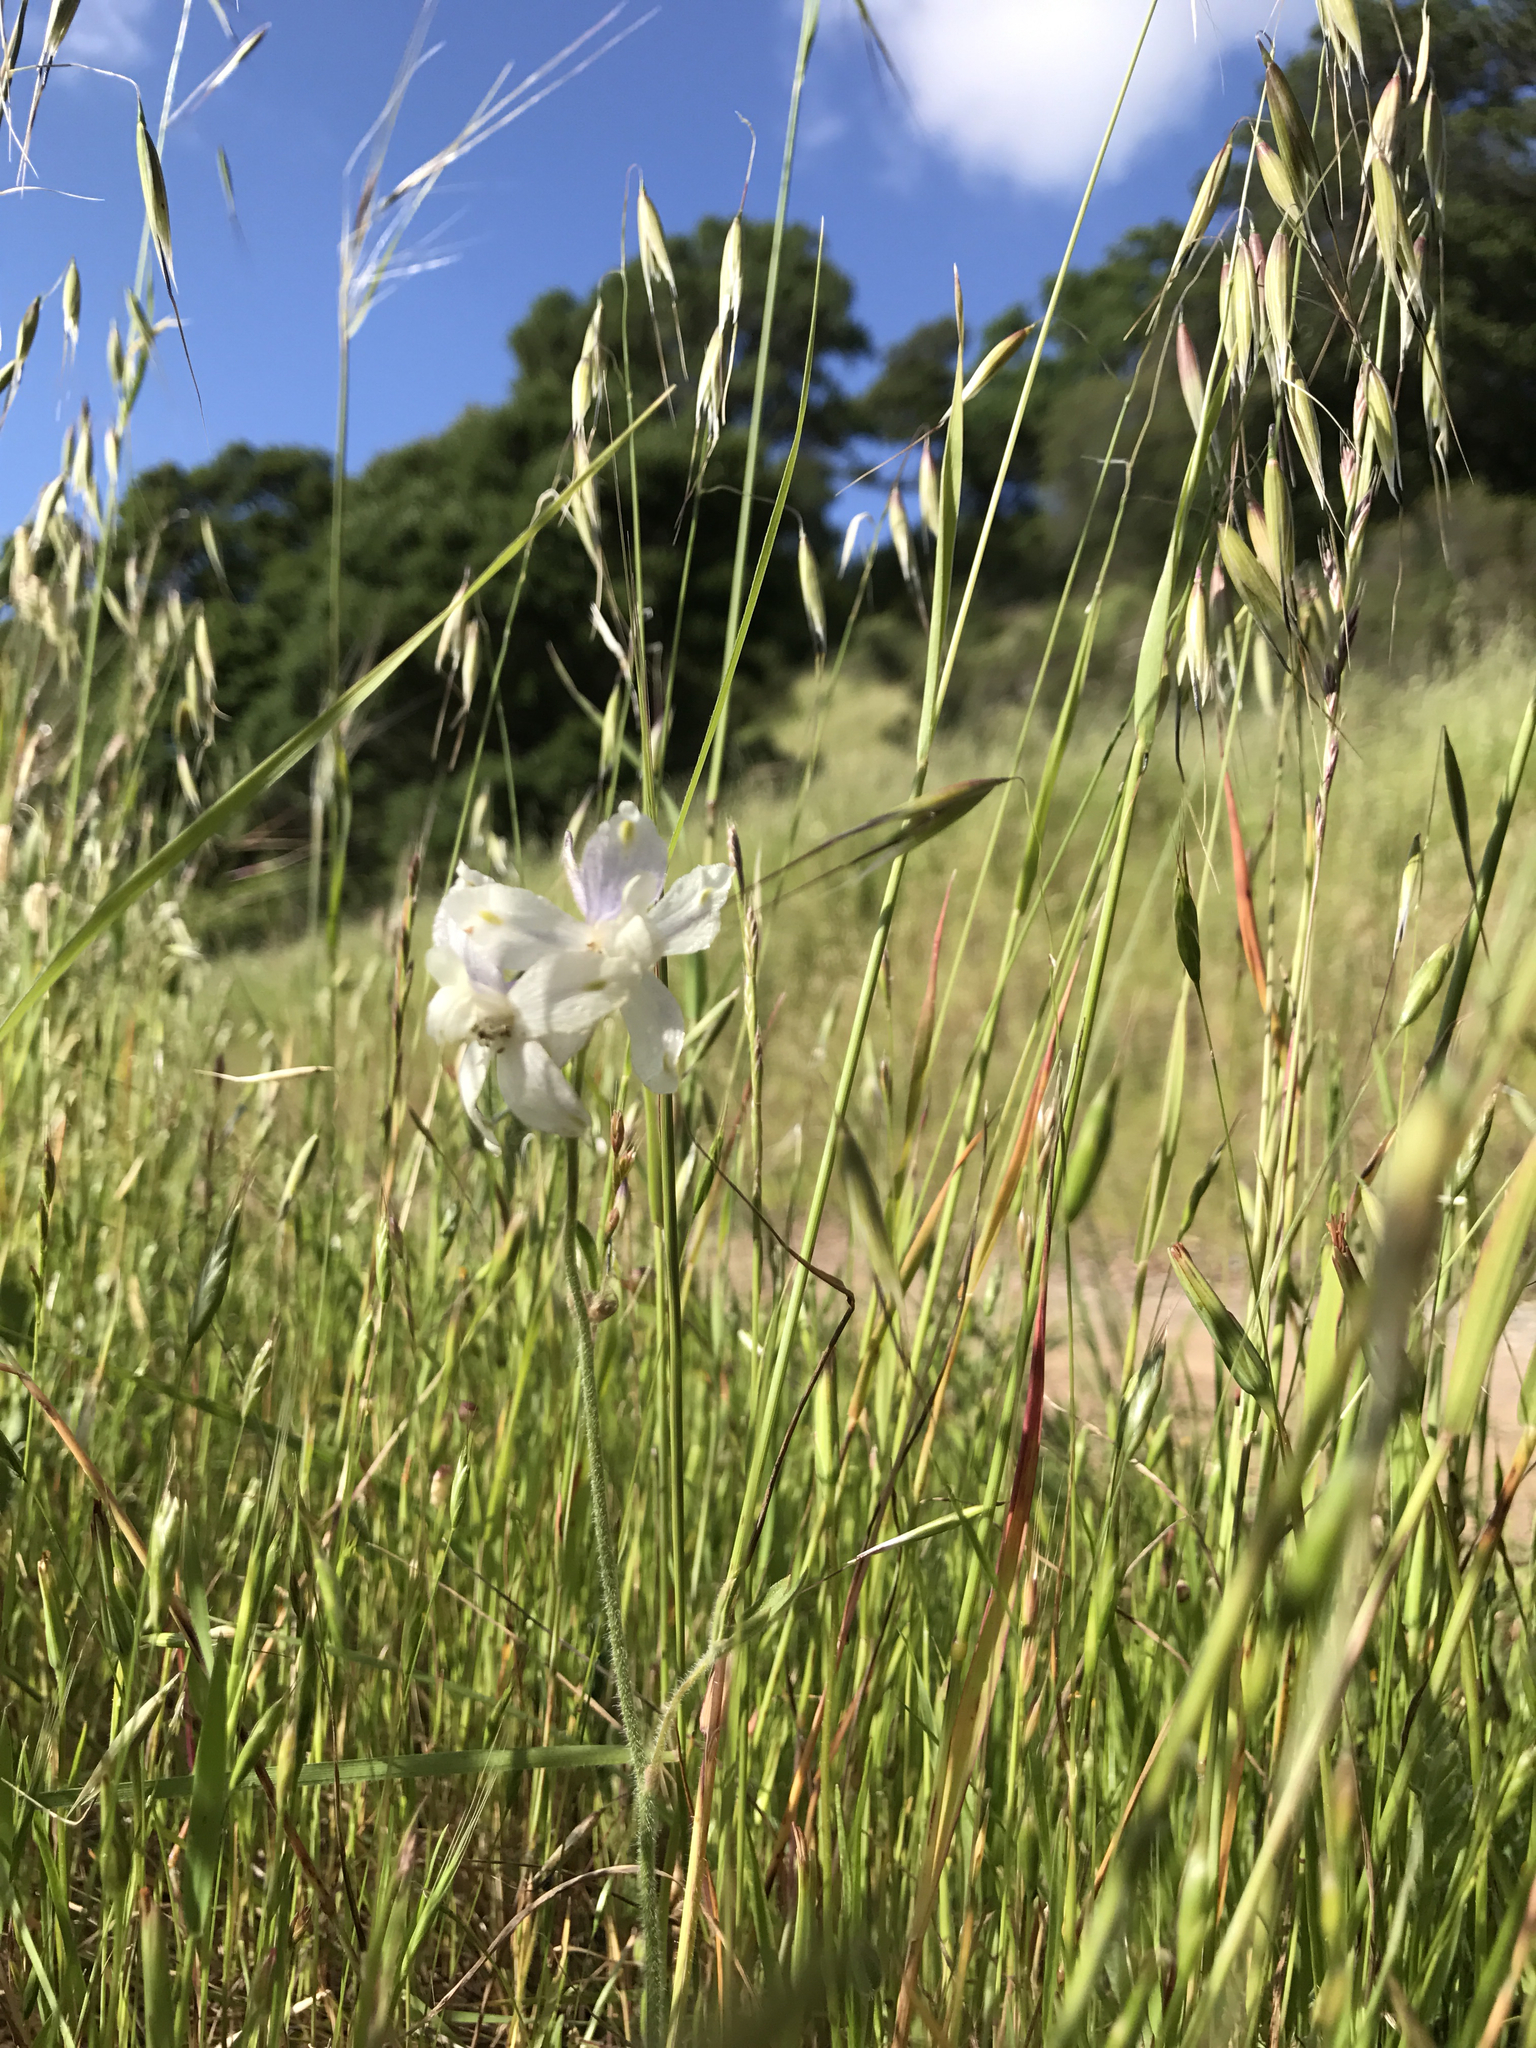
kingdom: Plantae
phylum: Tracheophyta
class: Magnoliopsida
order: Ranunculales
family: Ranunculaceae
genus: Delphinium
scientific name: Delphinium variegatum
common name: Royal larkspur
